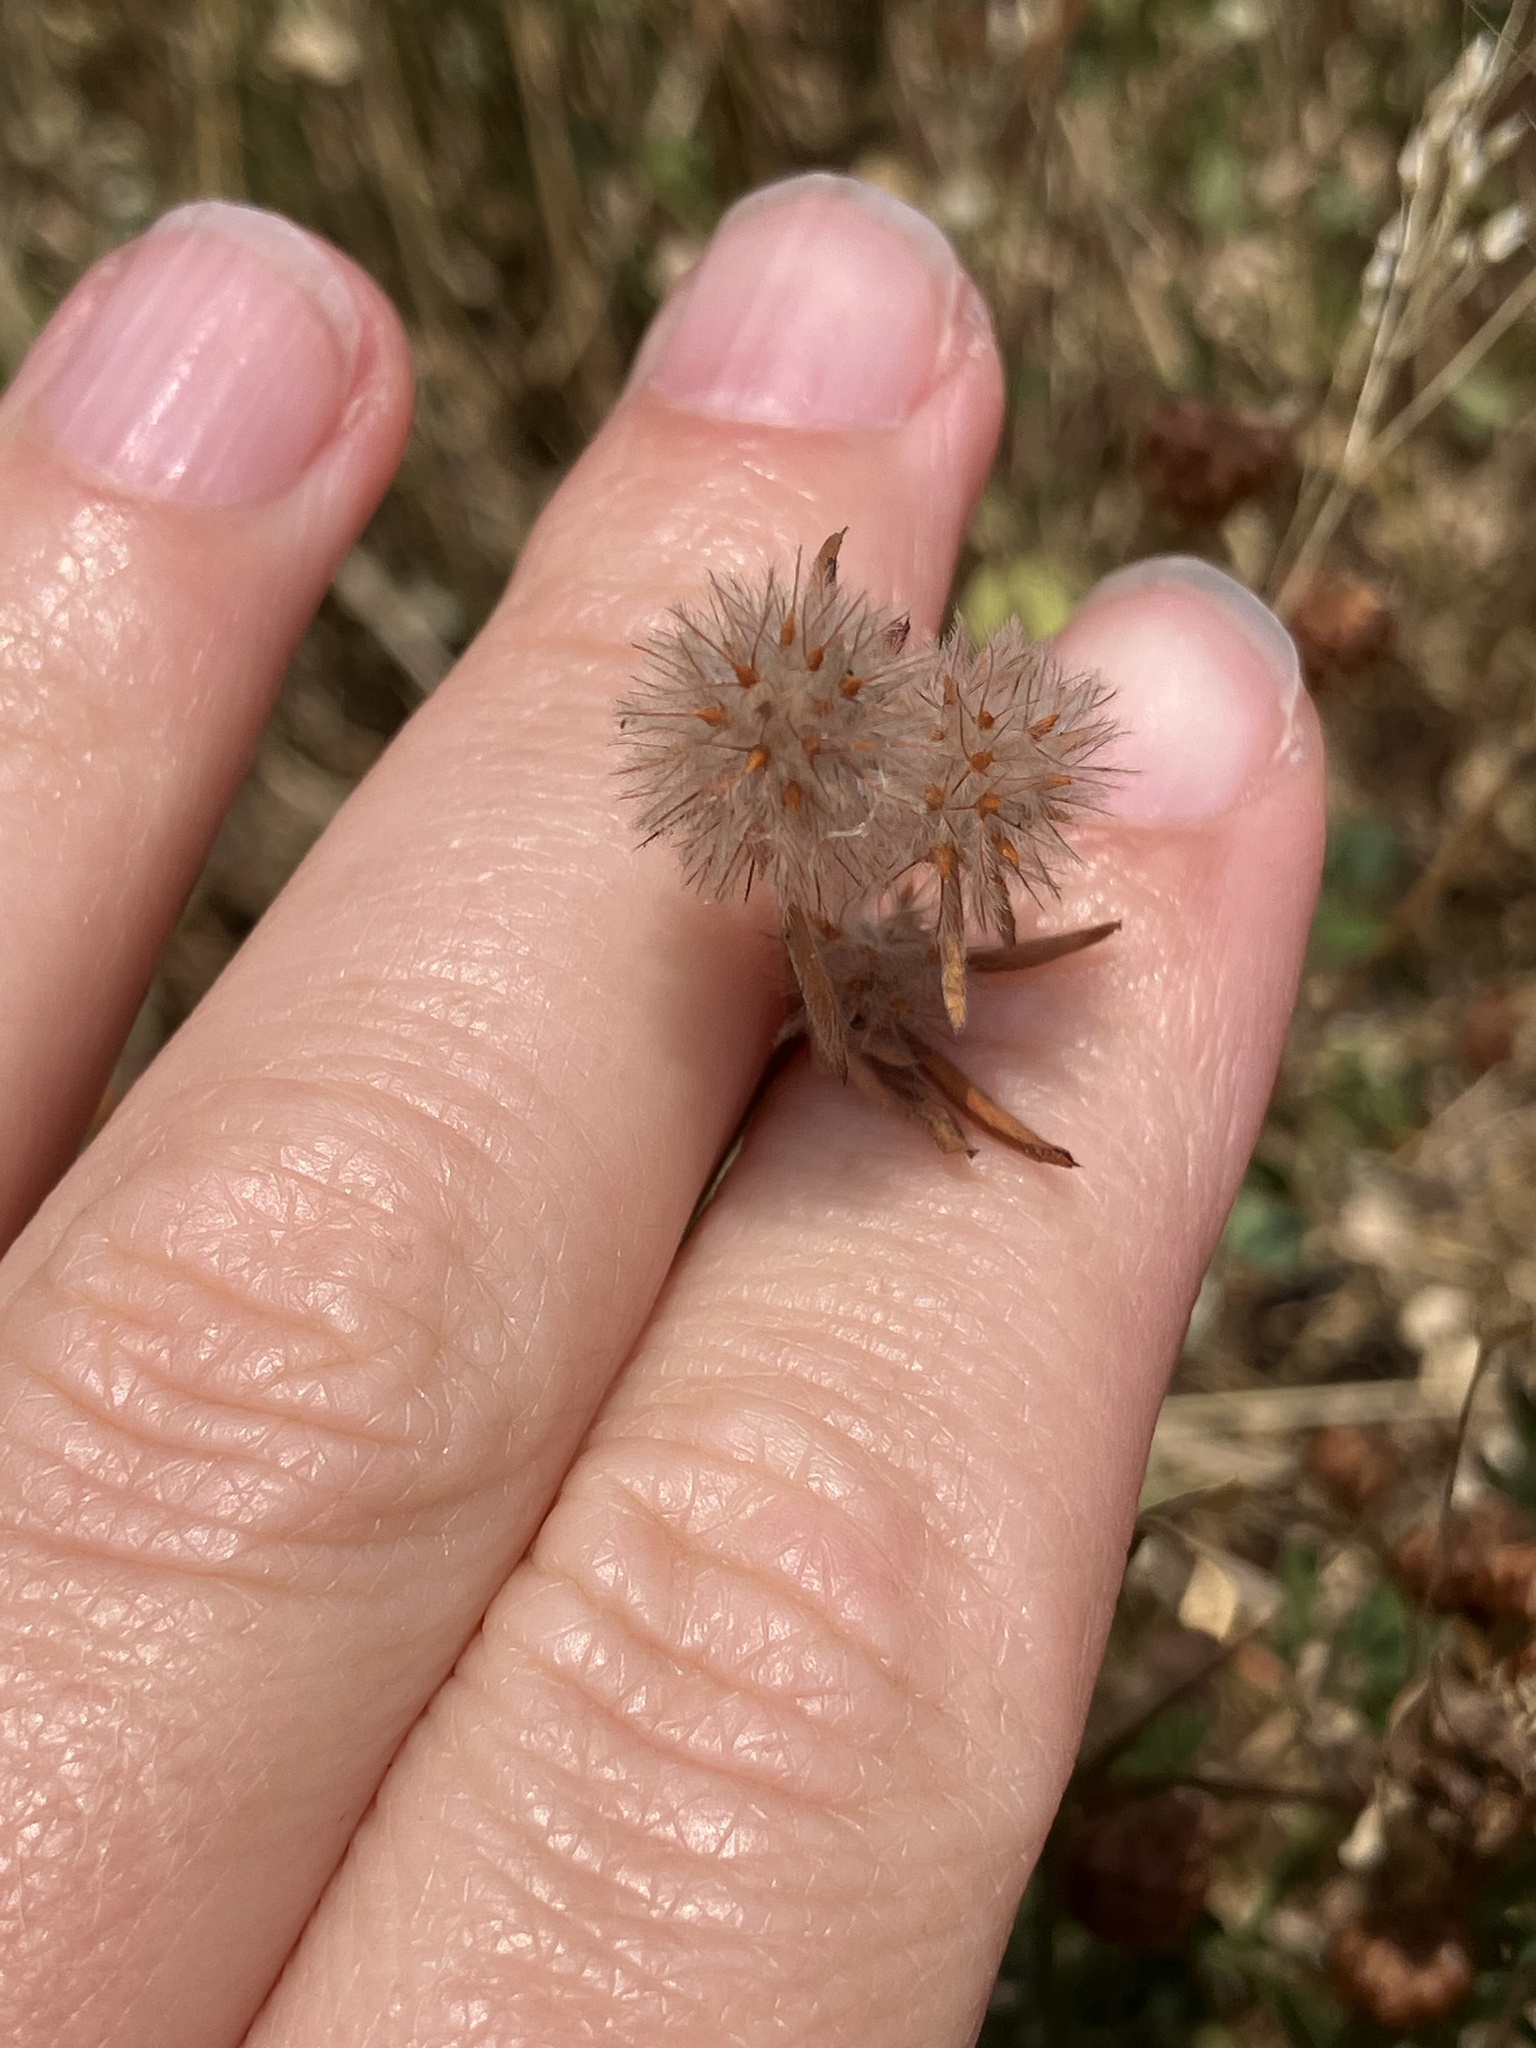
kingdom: Plantae
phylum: Tracheophyta
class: Magnoliopsida
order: Fabales
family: Fabaceae
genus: Trifolium
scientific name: Trifolium arvense
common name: Hare's-foot clover
